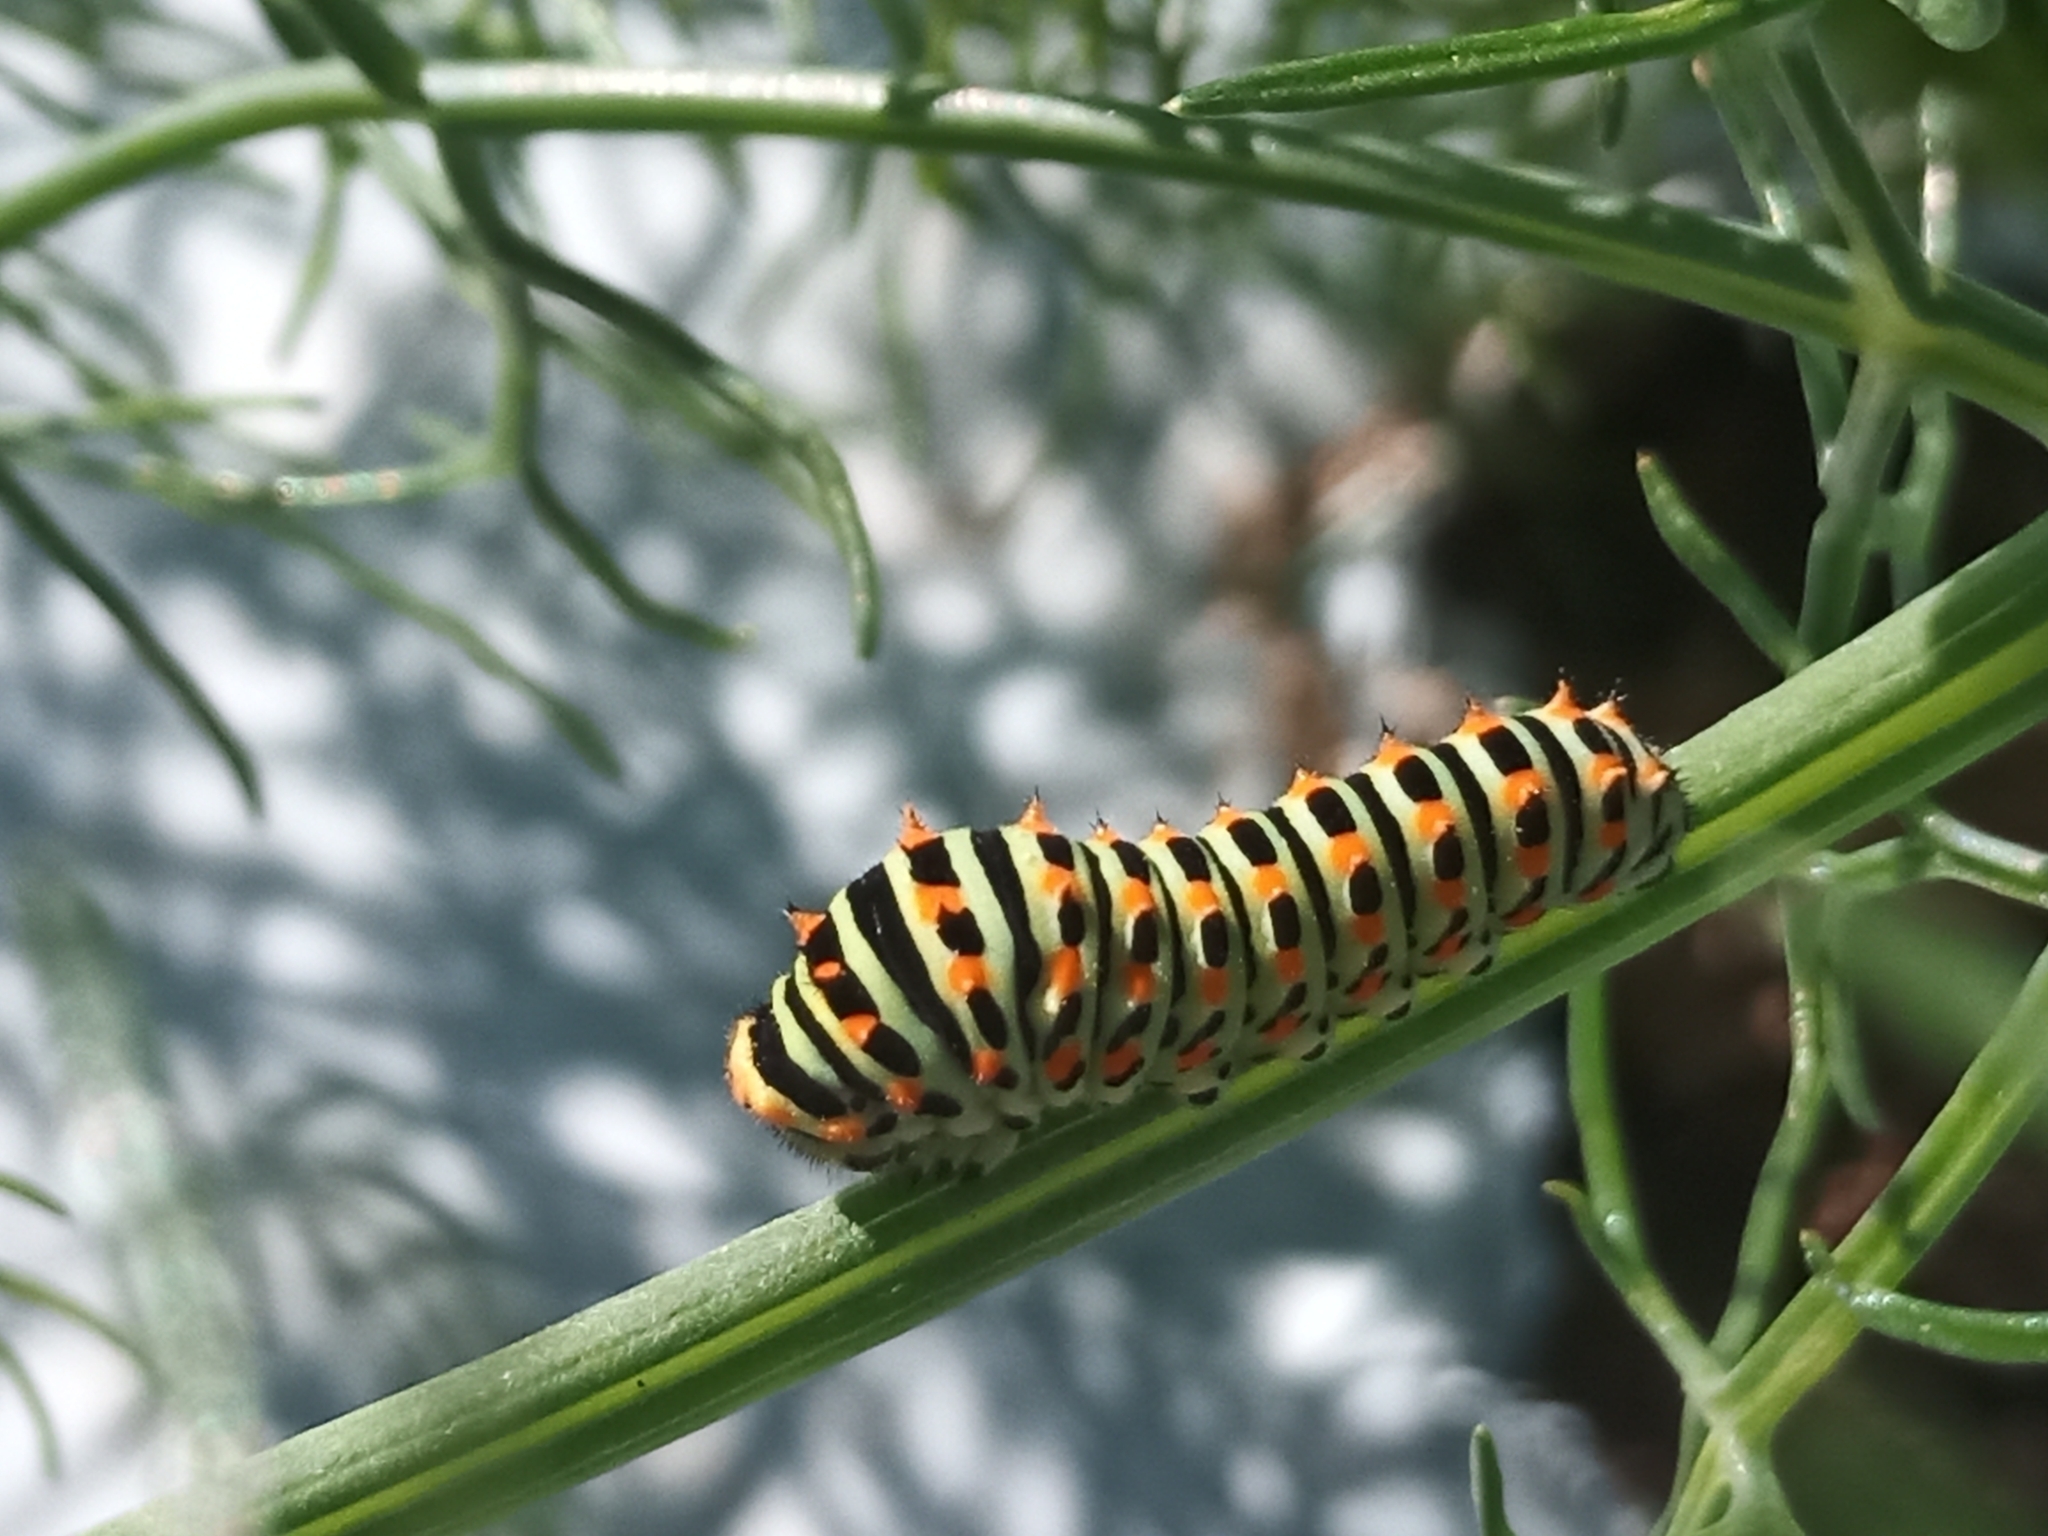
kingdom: Animalia
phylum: Arthropoda
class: Insecta
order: Lepidoptera
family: Papilionidae
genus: Papilio
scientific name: Papilio machaon
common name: Swallowtail
